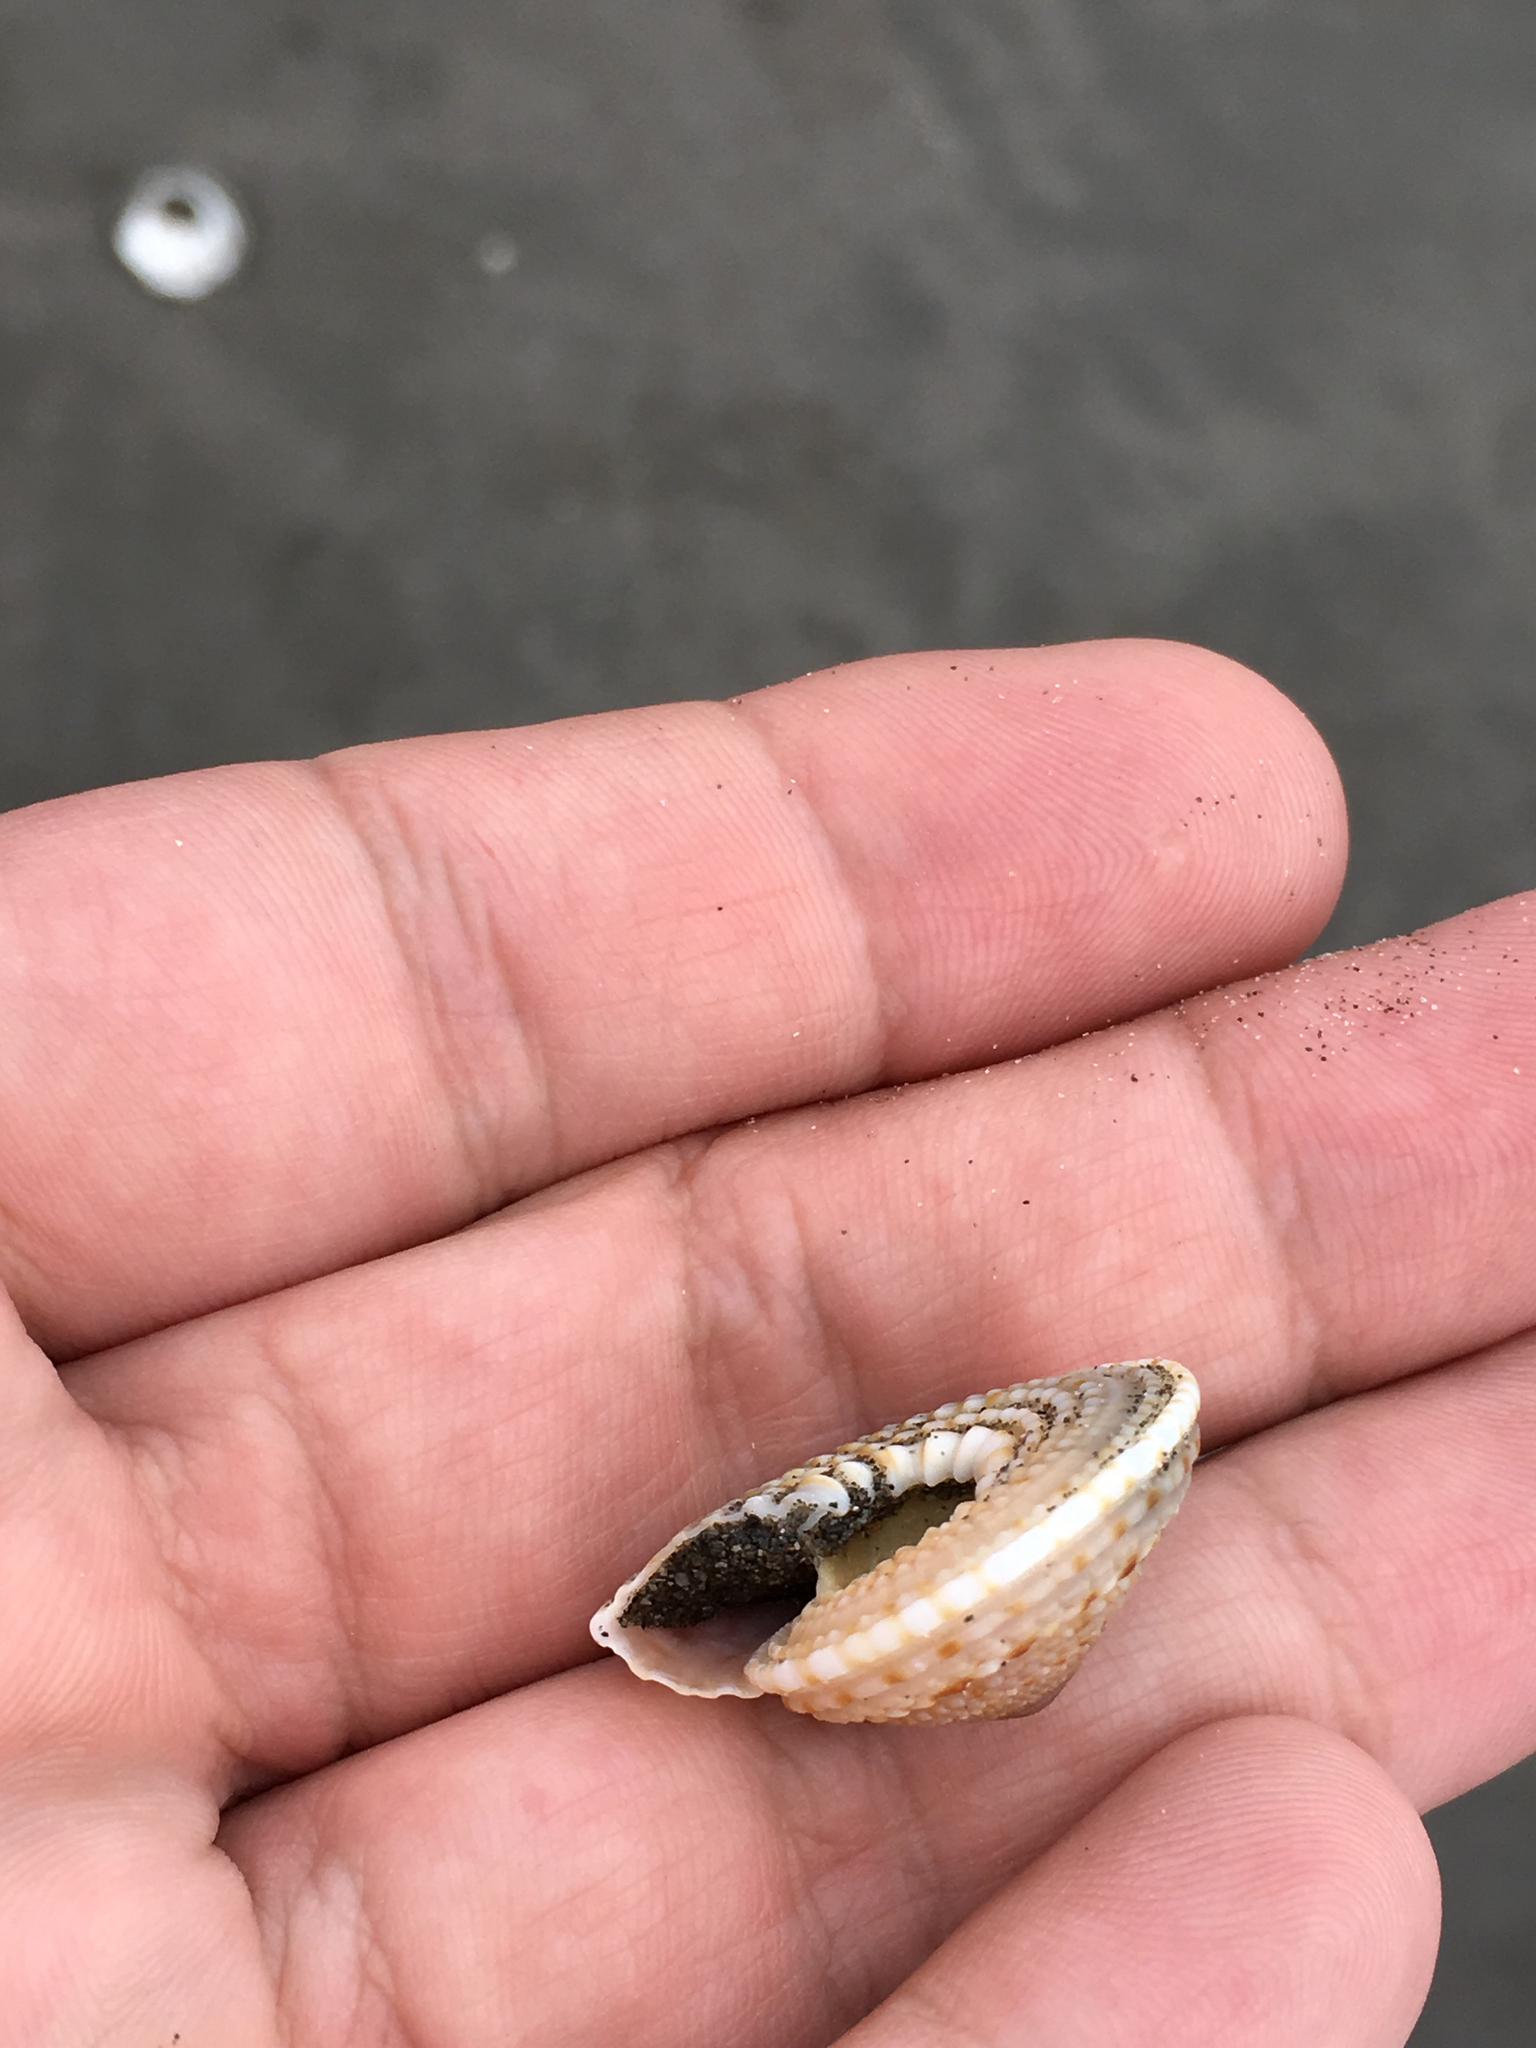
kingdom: Animalia
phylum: Mollusca
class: Gastropoda
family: Architectonicidae
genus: Architectonica
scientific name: Architectonica nobilis
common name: Common sundial
